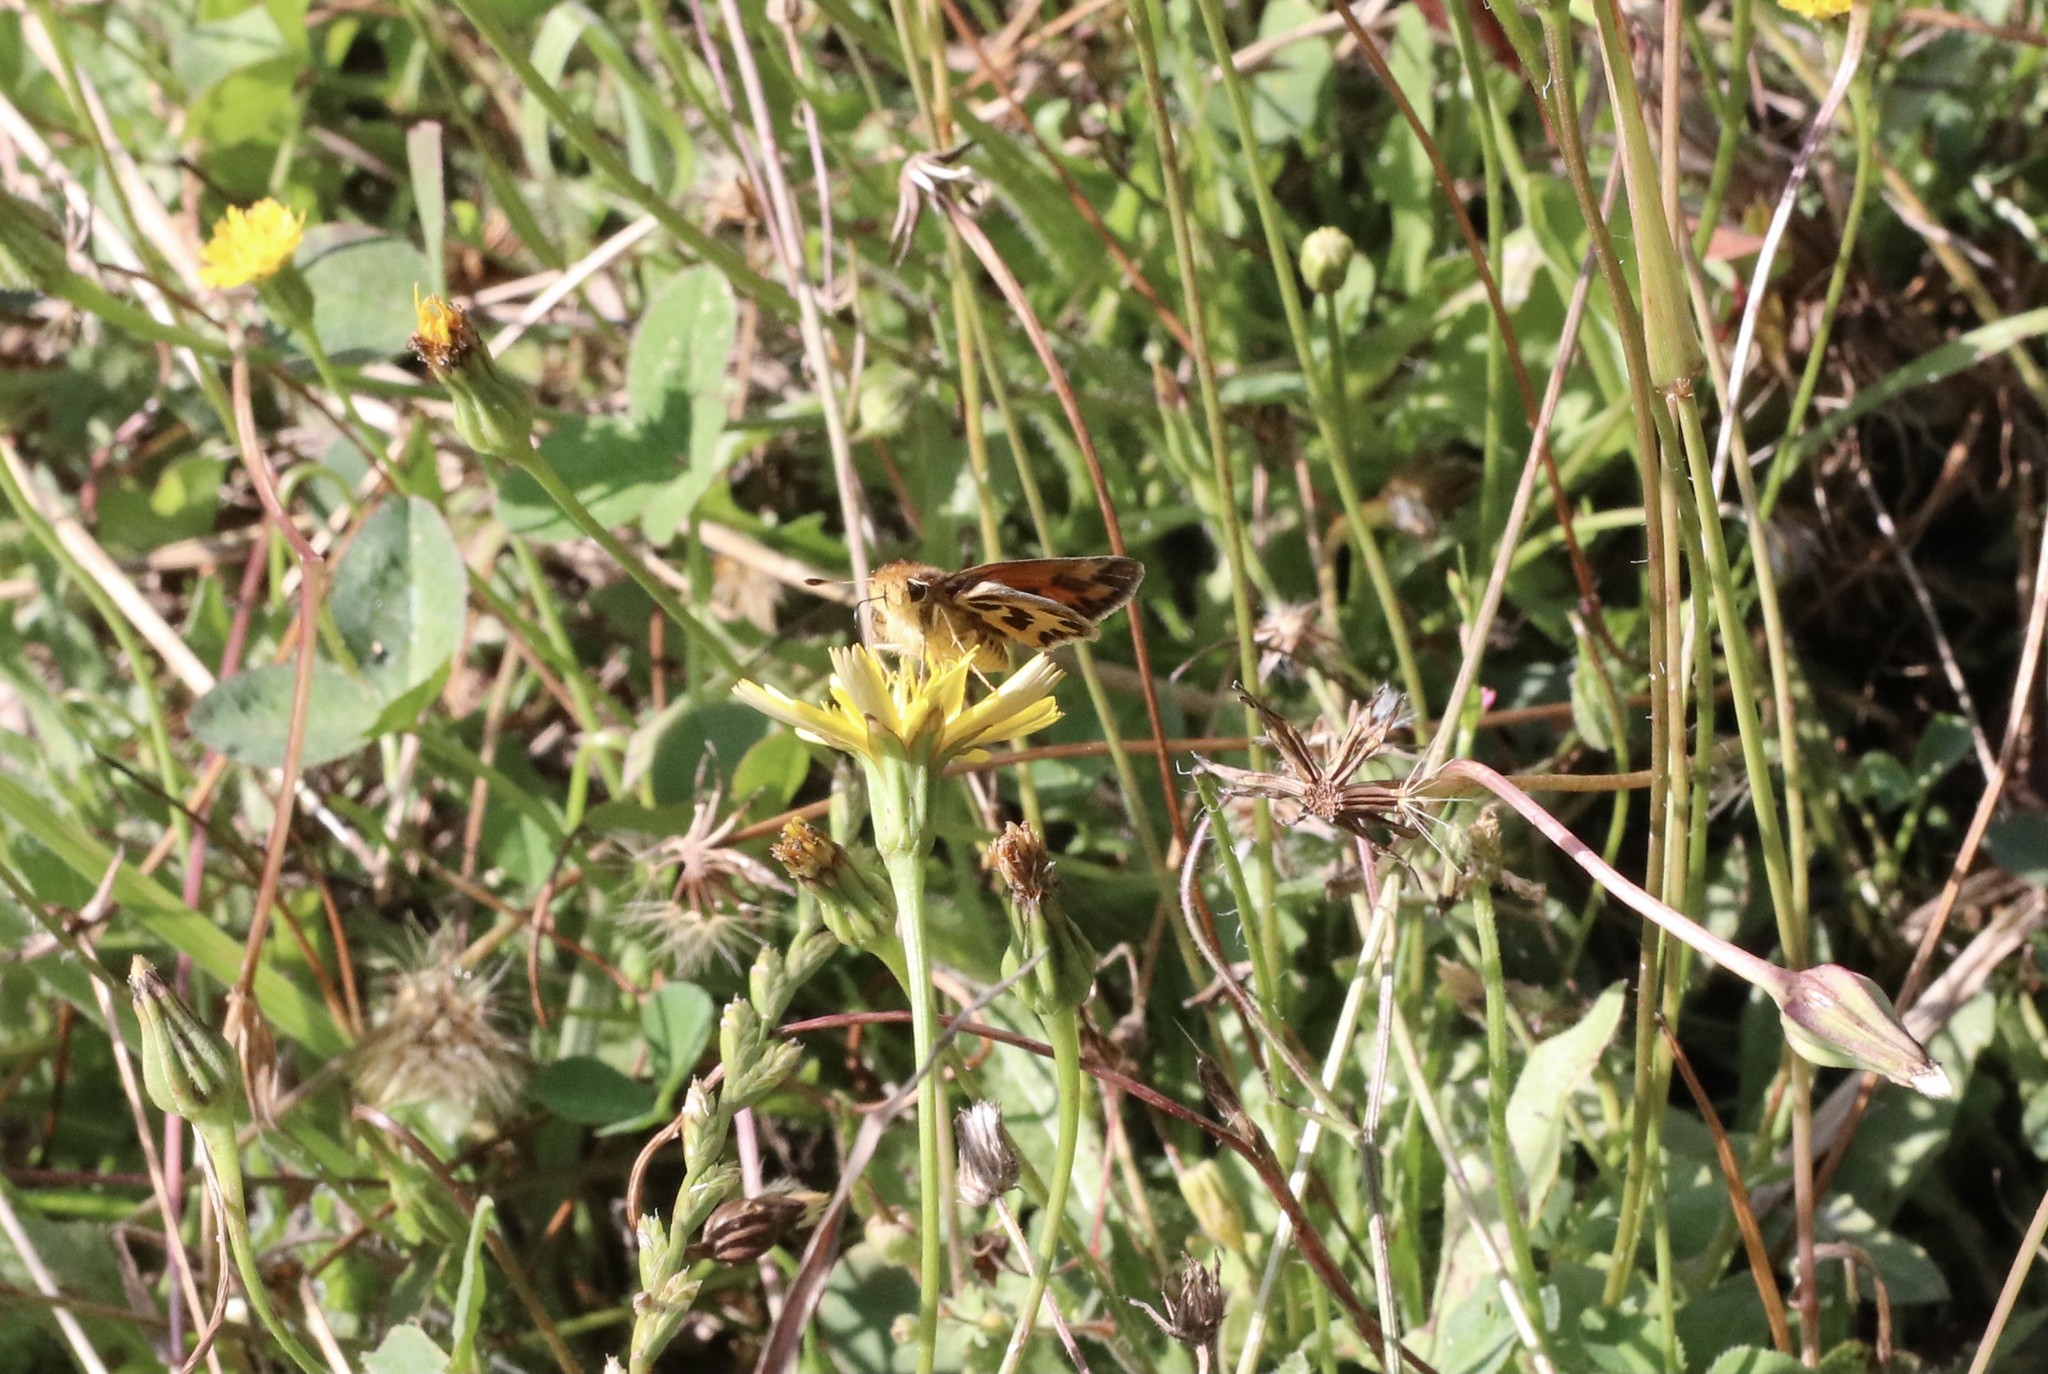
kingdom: Animalia
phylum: Arthropoda
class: Insecta
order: Lepidoptera
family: Hesperiidae
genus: Hylephila
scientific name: Hylephila fasciolata
